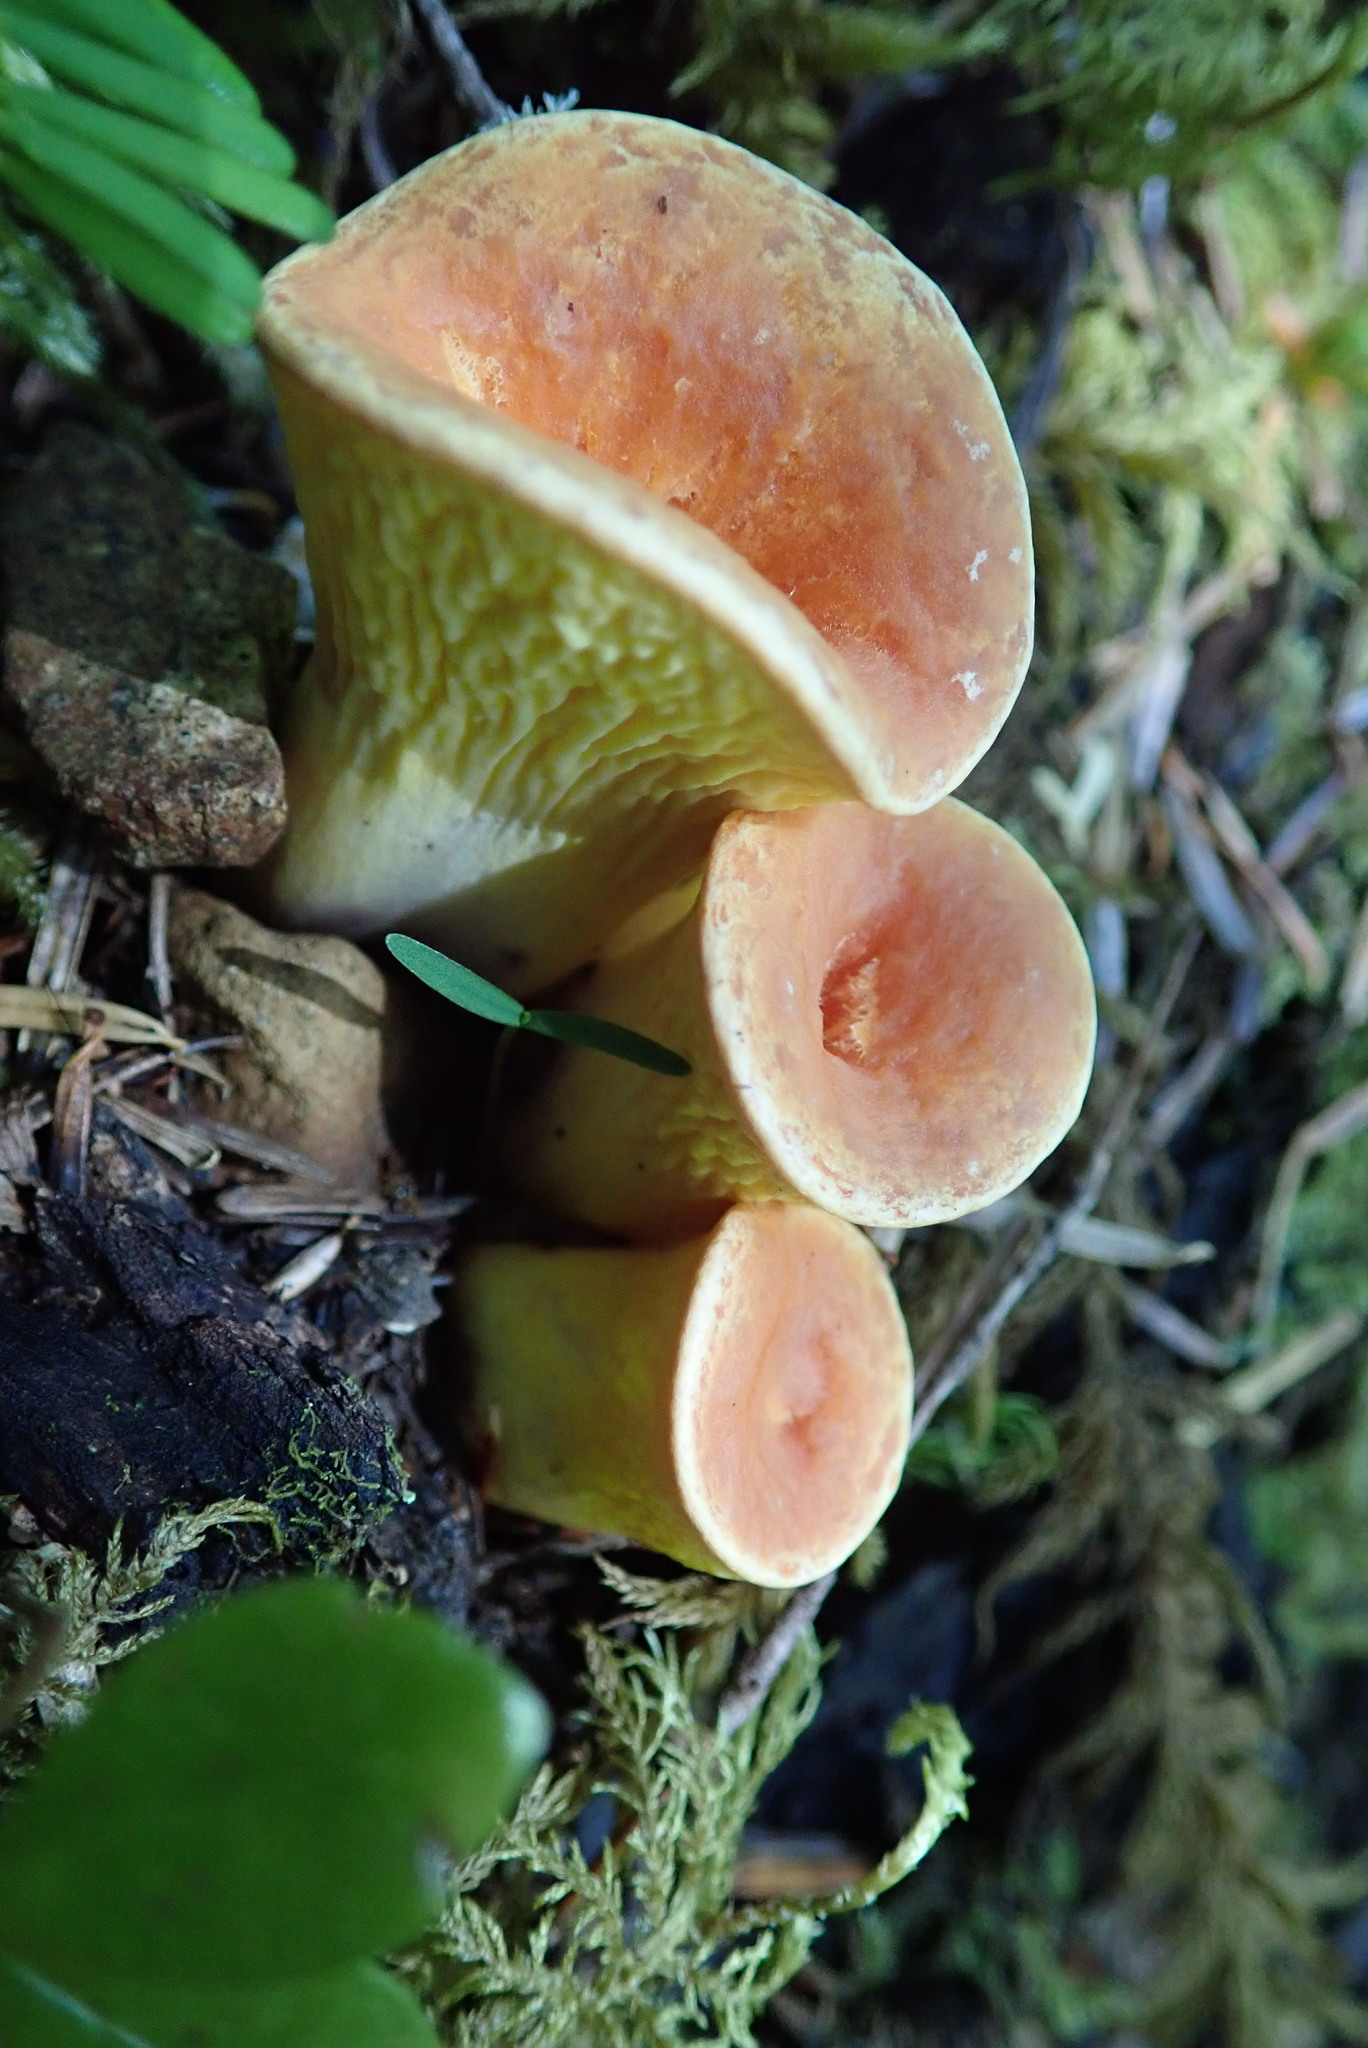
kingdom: Fungi
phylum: Basidiomycota
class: Agaricomycetes
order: Gomphales
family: Gomphaceae
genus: Turbinellus
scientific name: Turbinellus floccosus
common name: Scaly chanterelle
